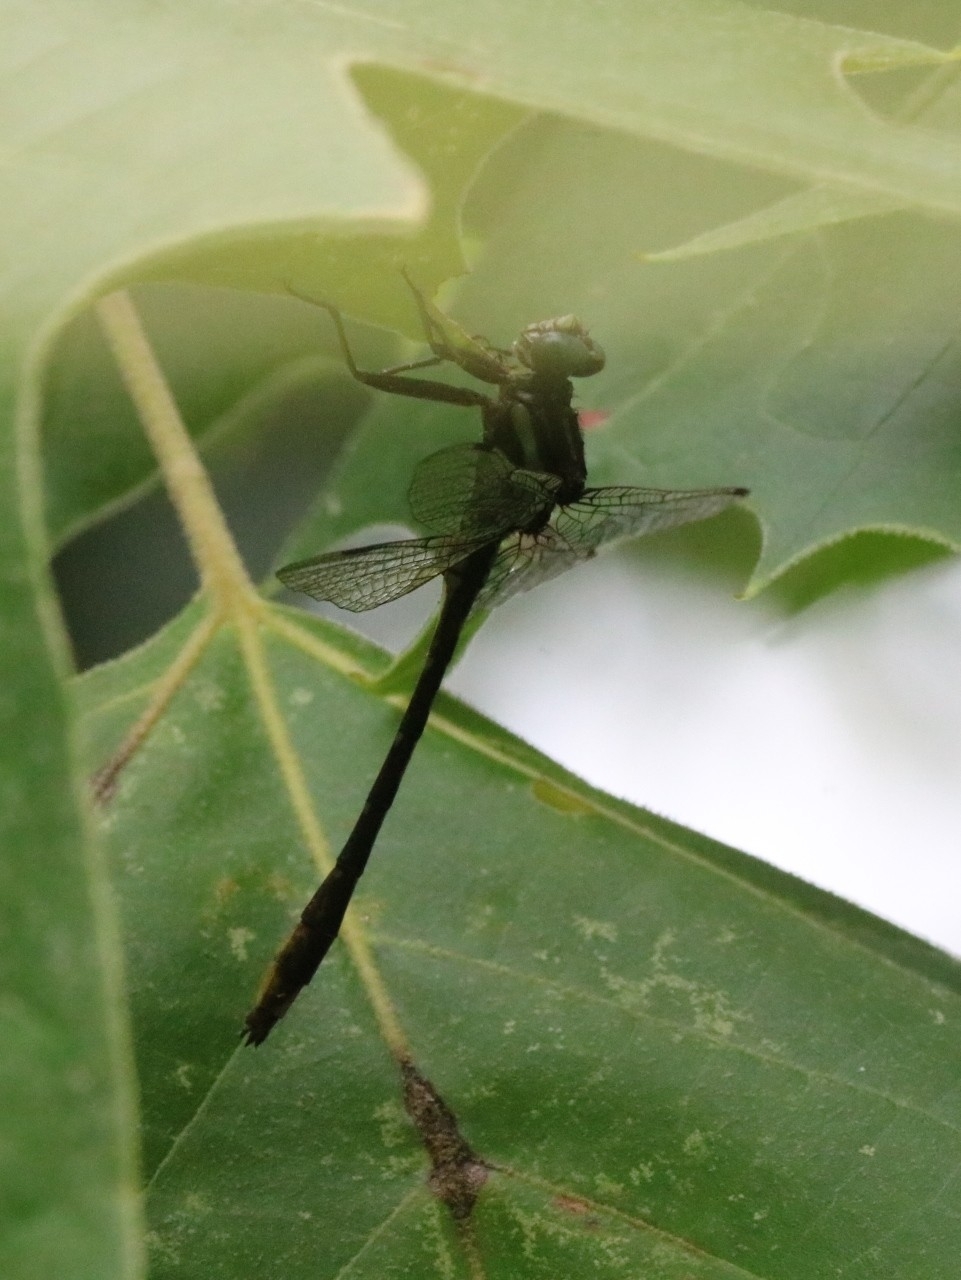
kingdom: Animalia
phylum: Arthropoda
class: Insecta
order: Odonata
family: Gomphidae
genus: Phanogomphus
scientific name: Phanogomphus exilis
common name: Lancet clubtail
